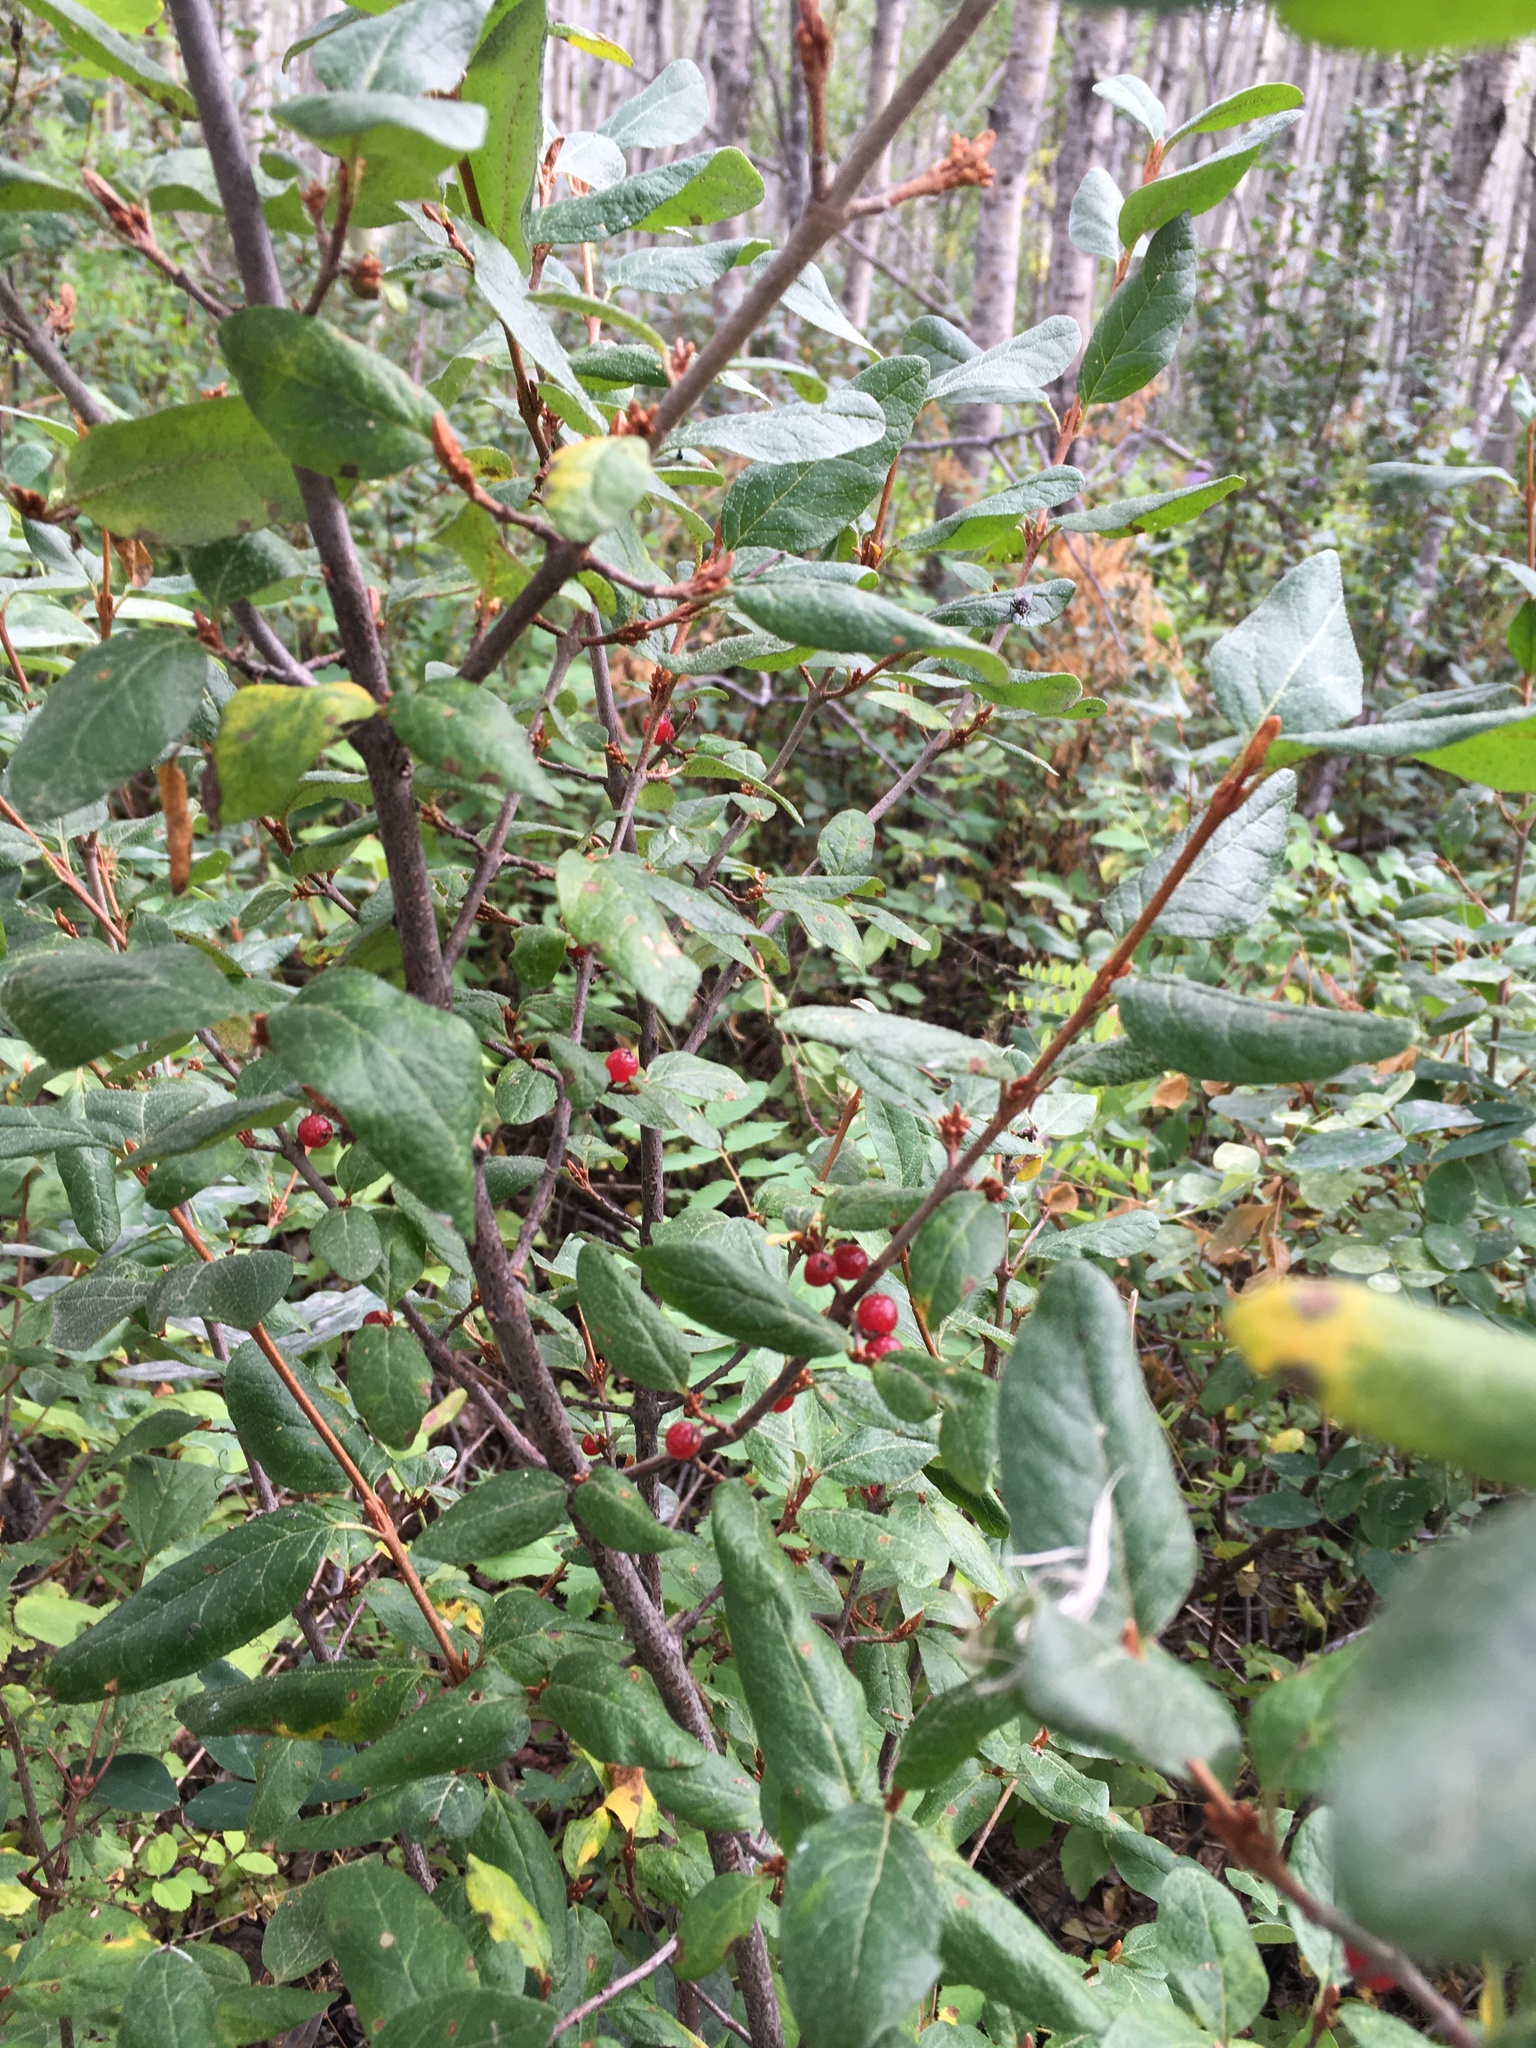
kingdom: Plantae
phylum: Tracheophyta
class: Magnoliopsida
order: Rosales
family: Elaeagnaceae
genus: Shepherdia
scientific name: Shepherdia canadensis
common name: Soapberry
